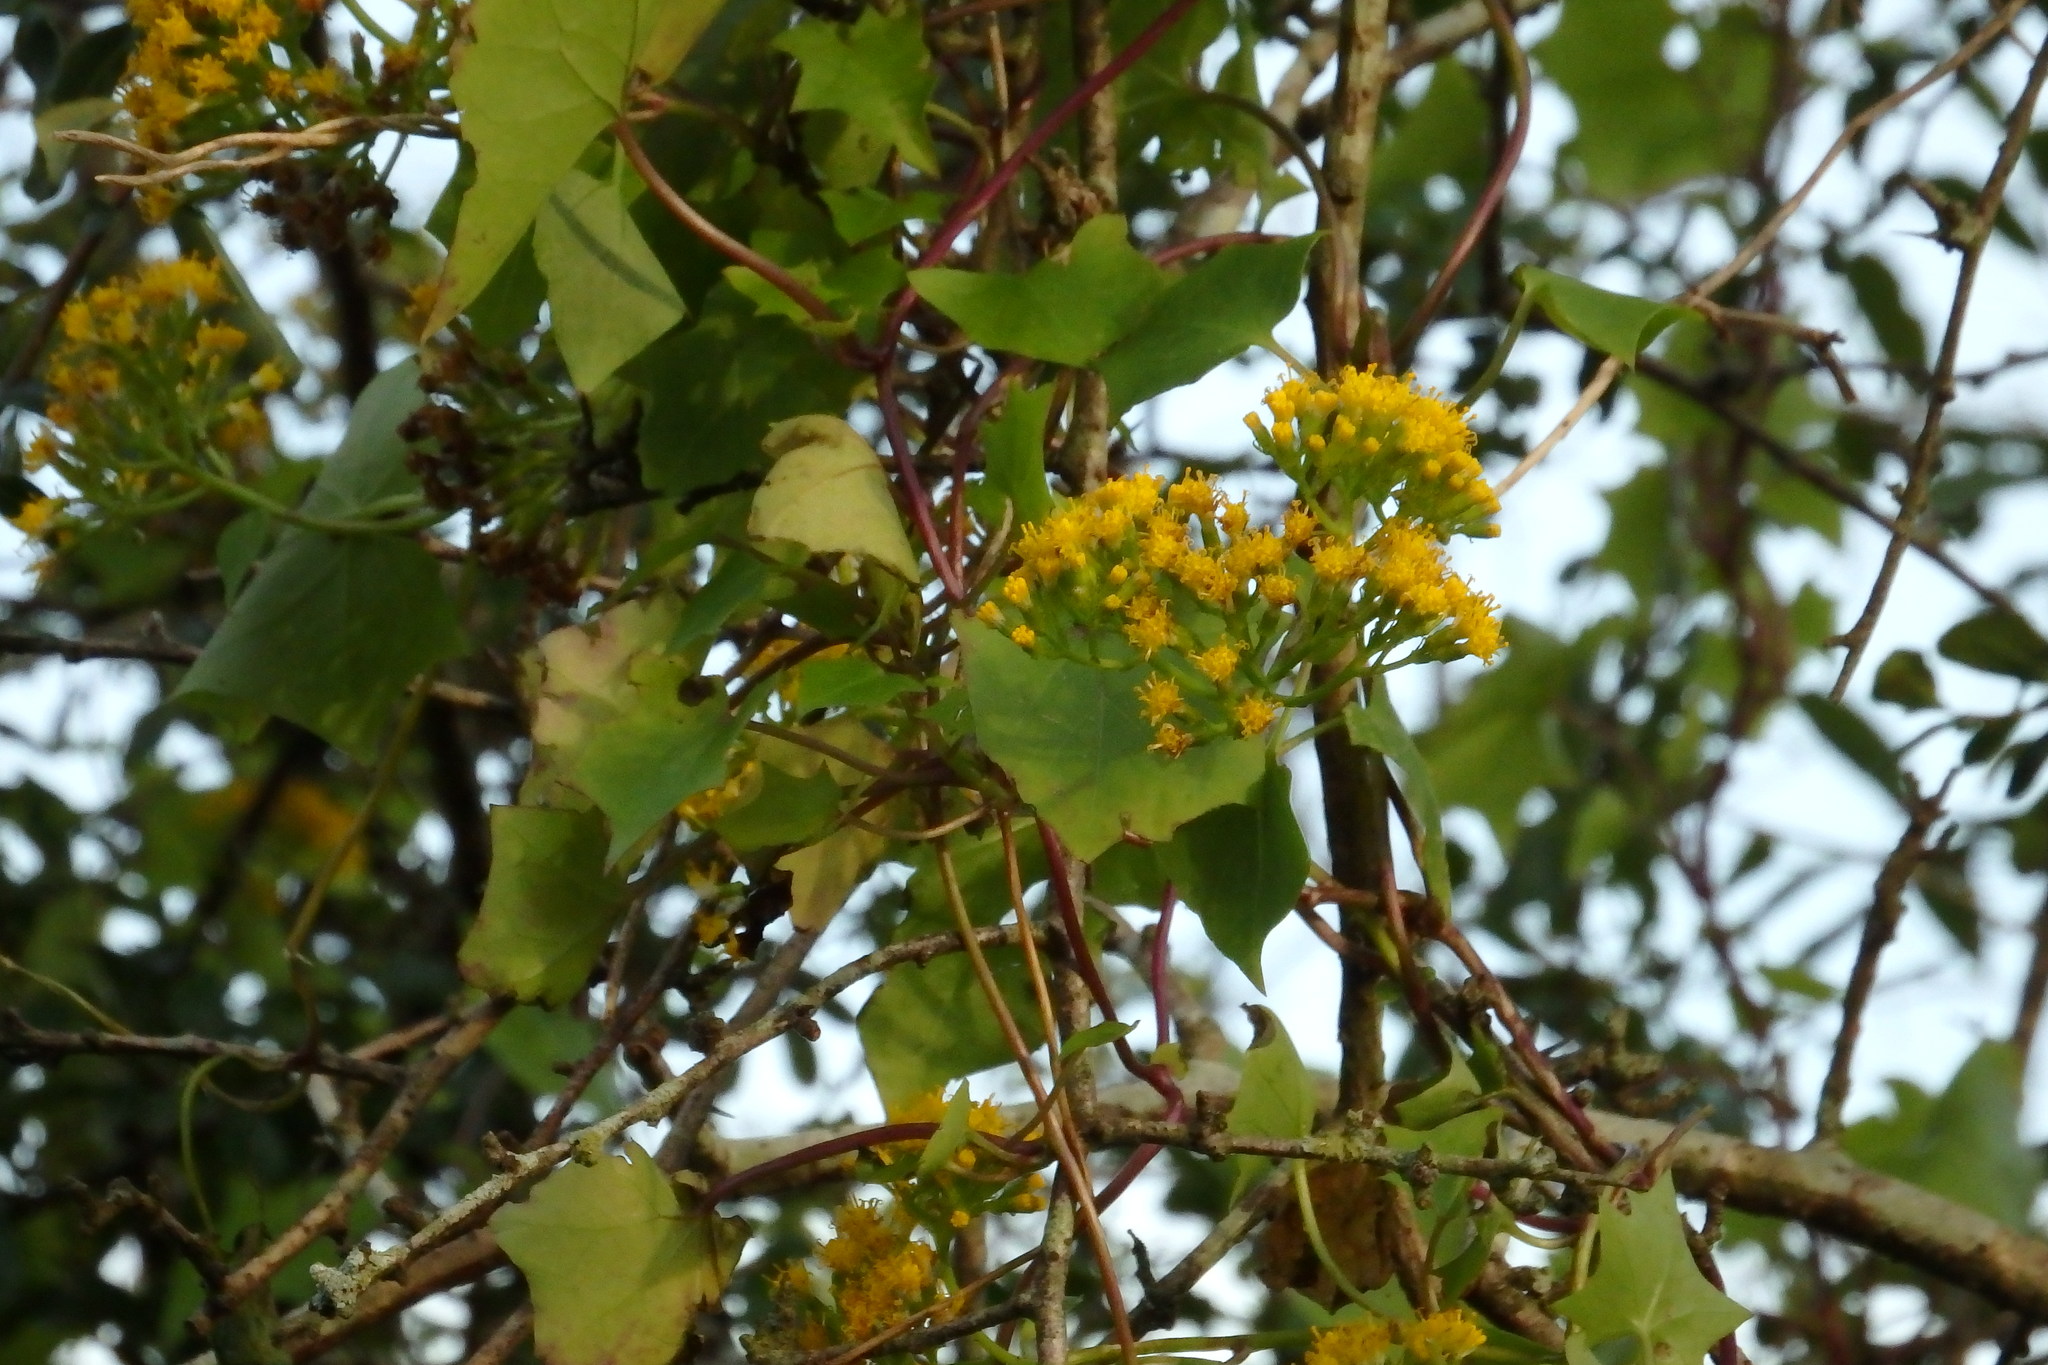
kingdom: Plantae
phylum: Tracheophyta
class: Magnoliopsida
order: Asterales
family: Asteraceae
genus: Delairea
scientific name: Delairea odorata
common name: Cape-ivy
